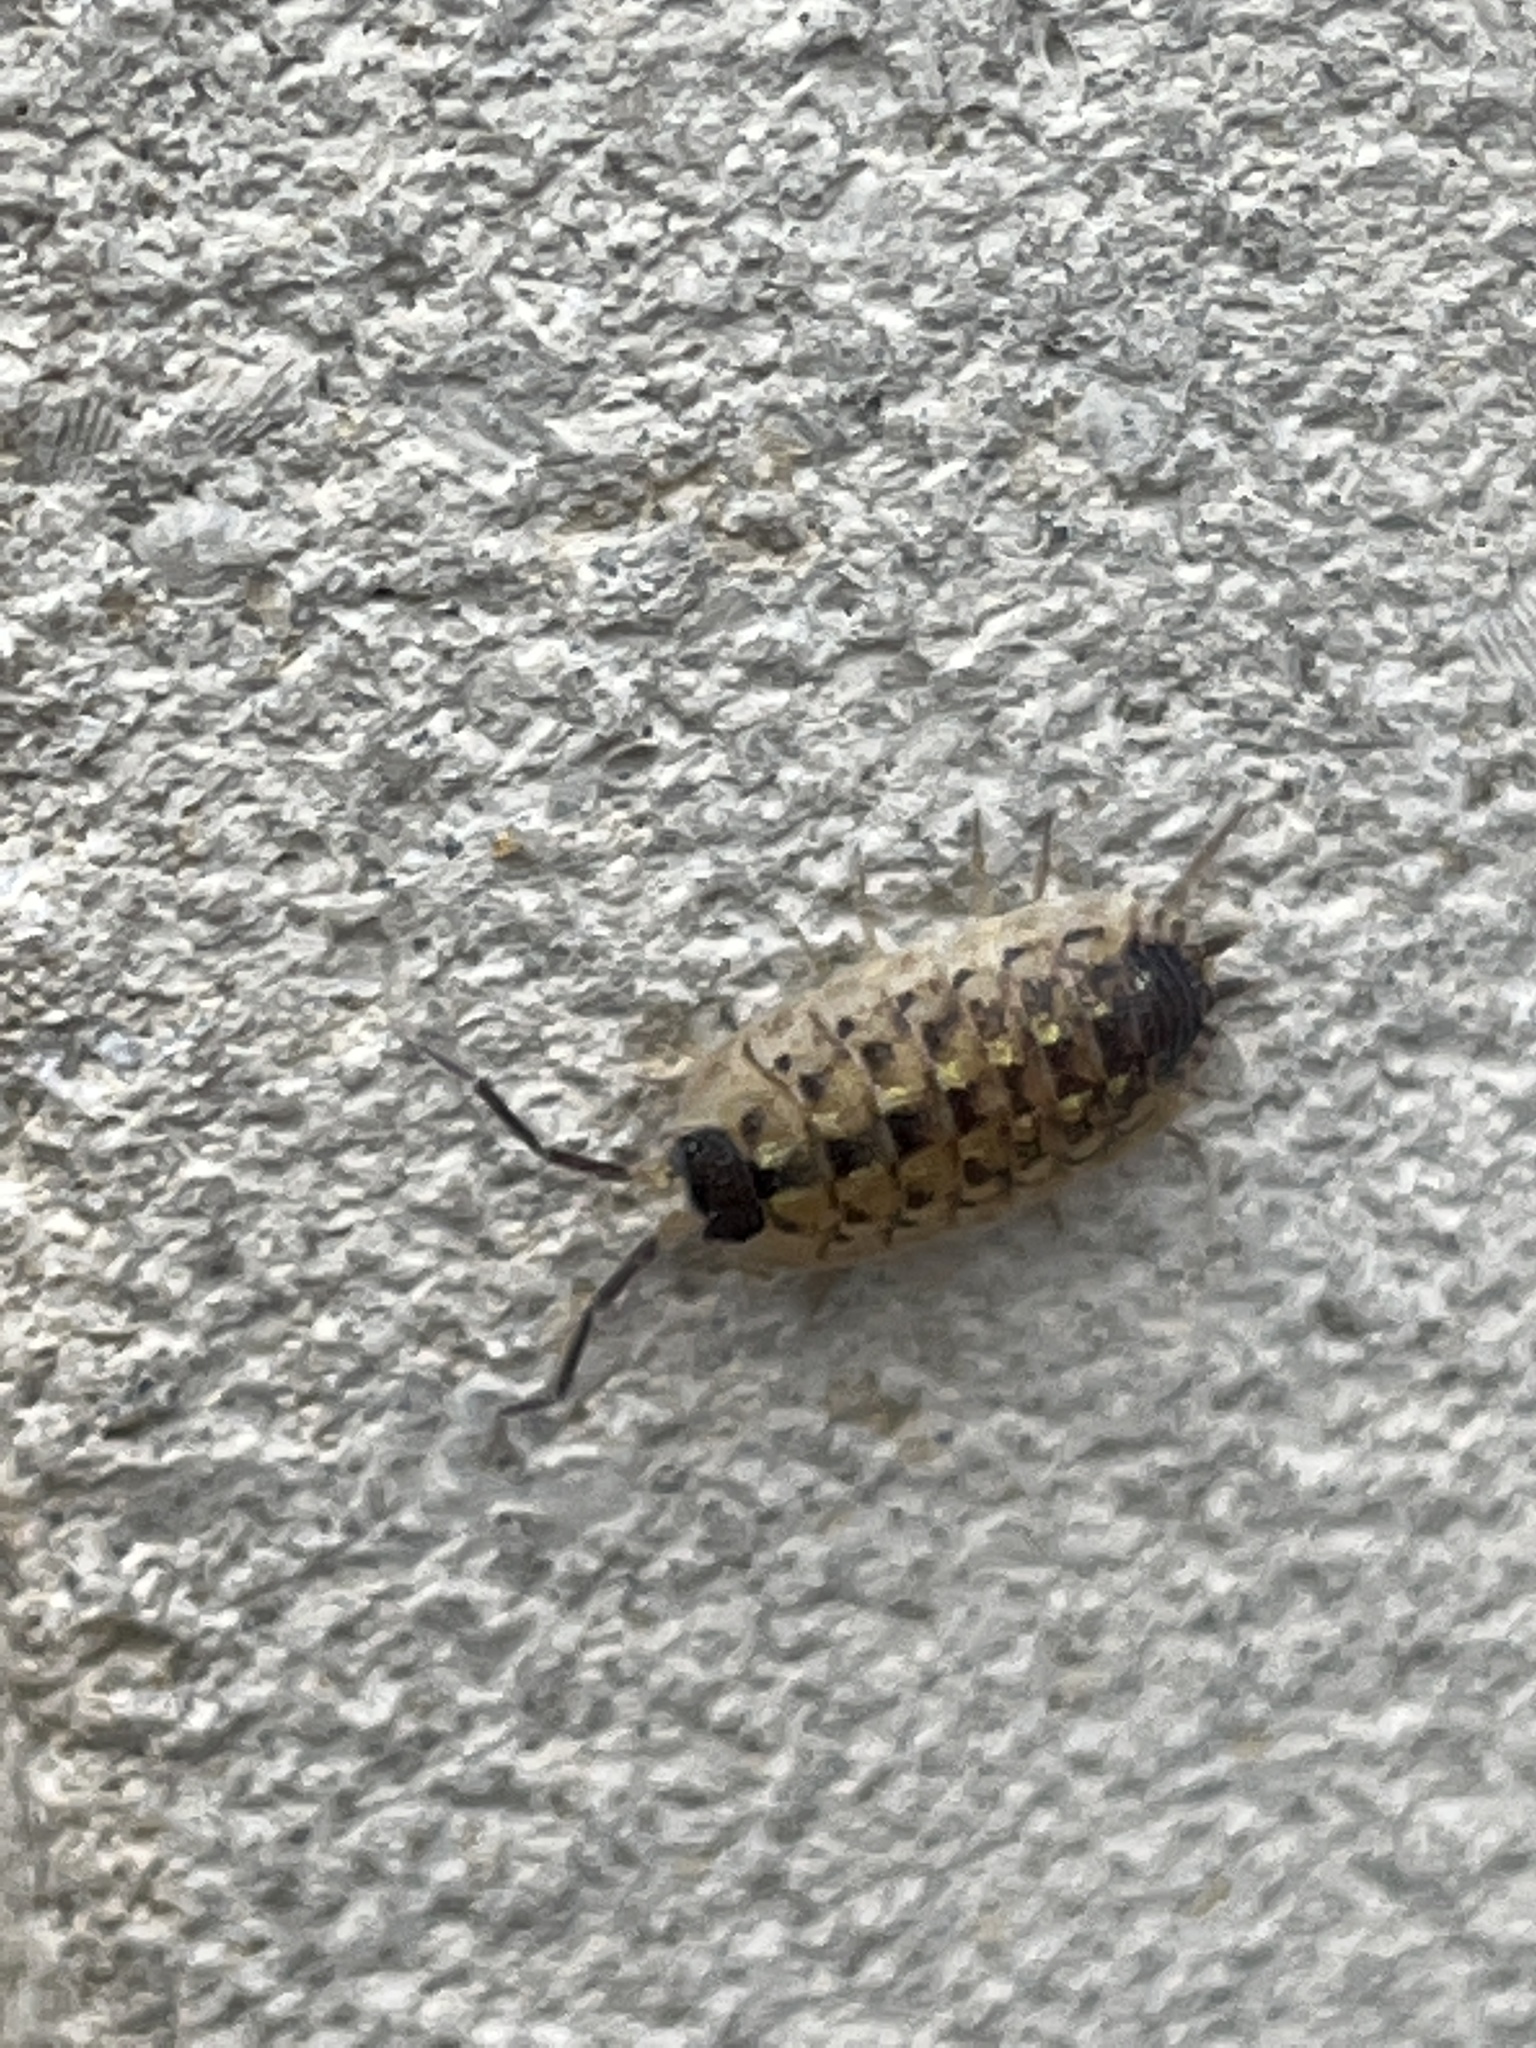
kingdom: Animalia
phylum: Arthropoda
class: Malacostraca
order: Isopoda
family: Porcellionidae
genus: Porcellio
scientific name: Porcellio spinicornis
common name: Painted woodlouse
